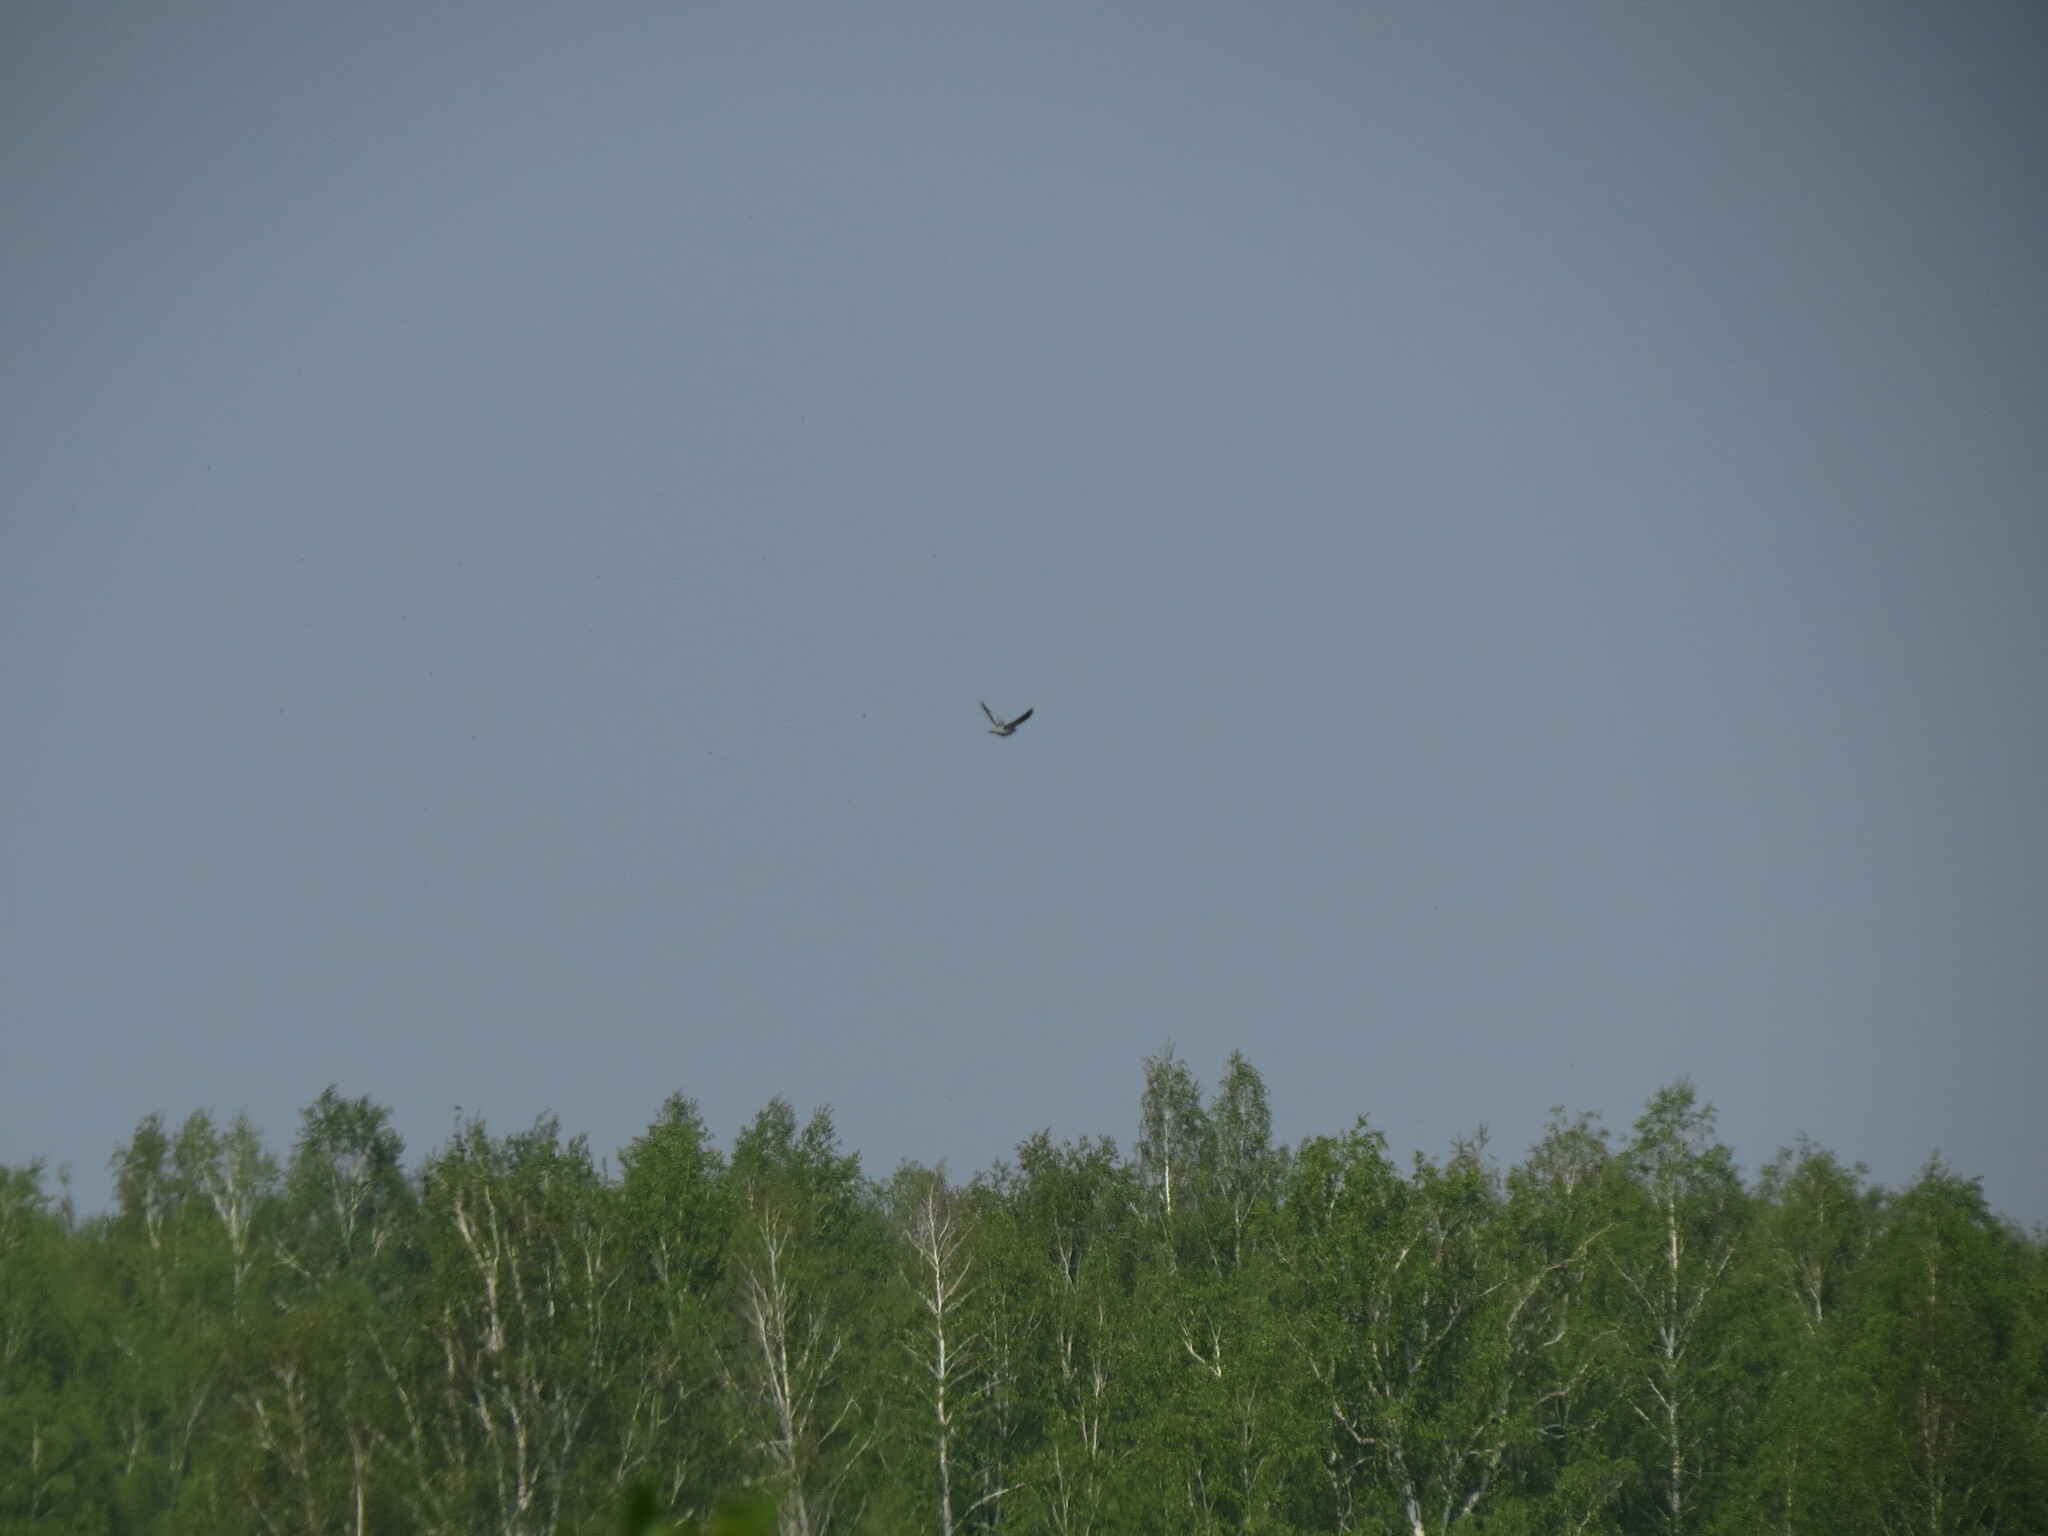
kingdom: Animalia
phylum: Chordata
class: Aves
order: Columbiformes
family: Columbidae
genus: Columba
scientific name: Columba livia
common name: Rock pigeon
